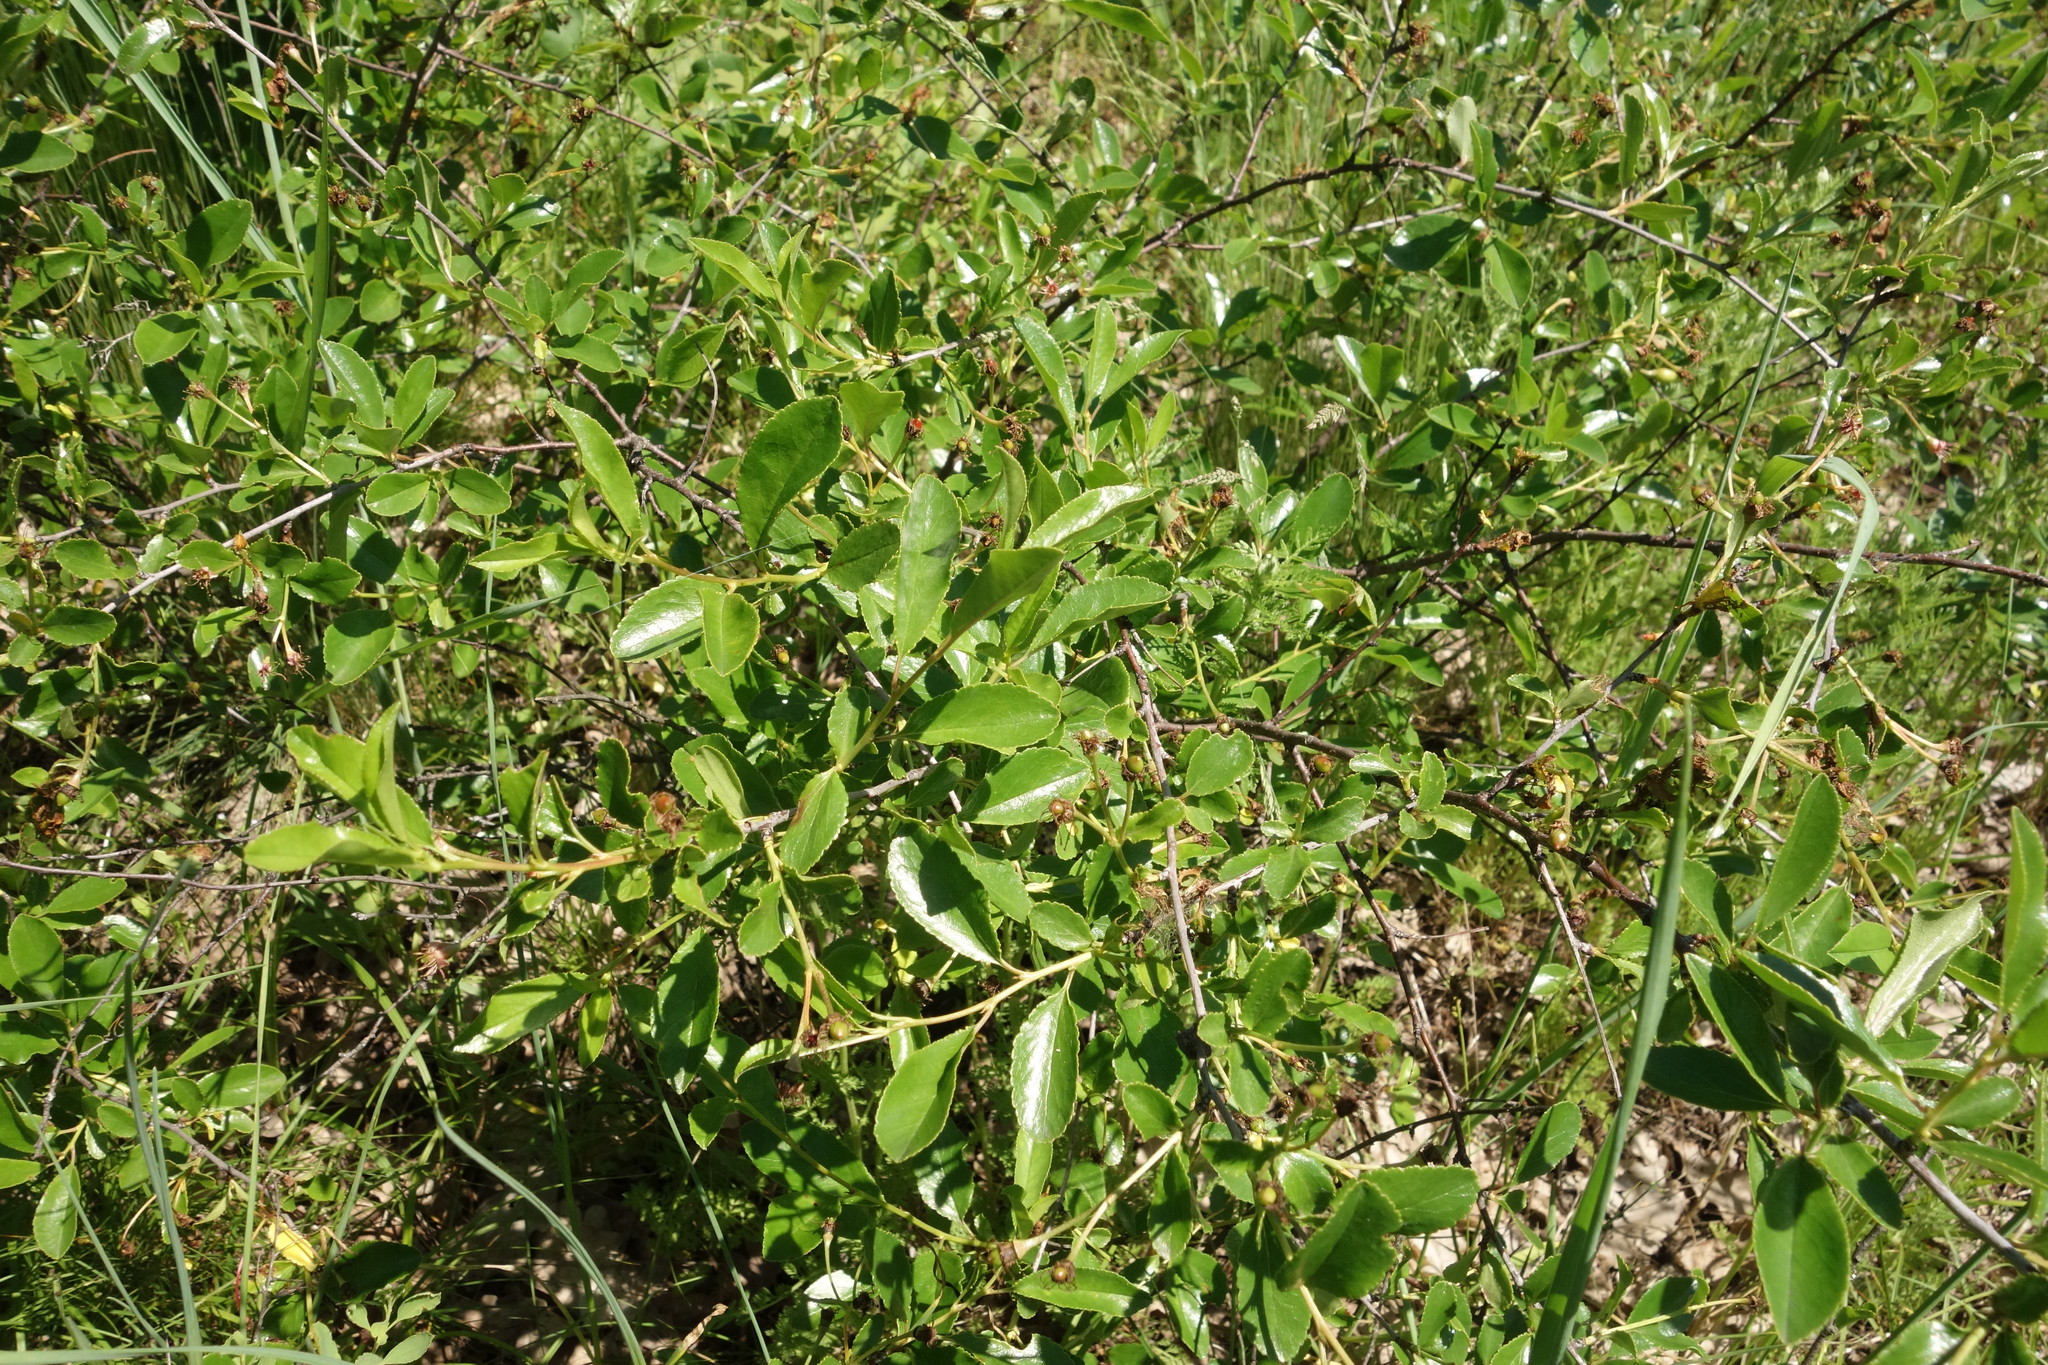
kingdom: Plantae
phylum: Tracheophyta
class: Magnoliopsida
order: Rosales
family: Rosaceae
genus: Prunus
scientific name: Prunus fruticosa
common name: European dwarf cherry
